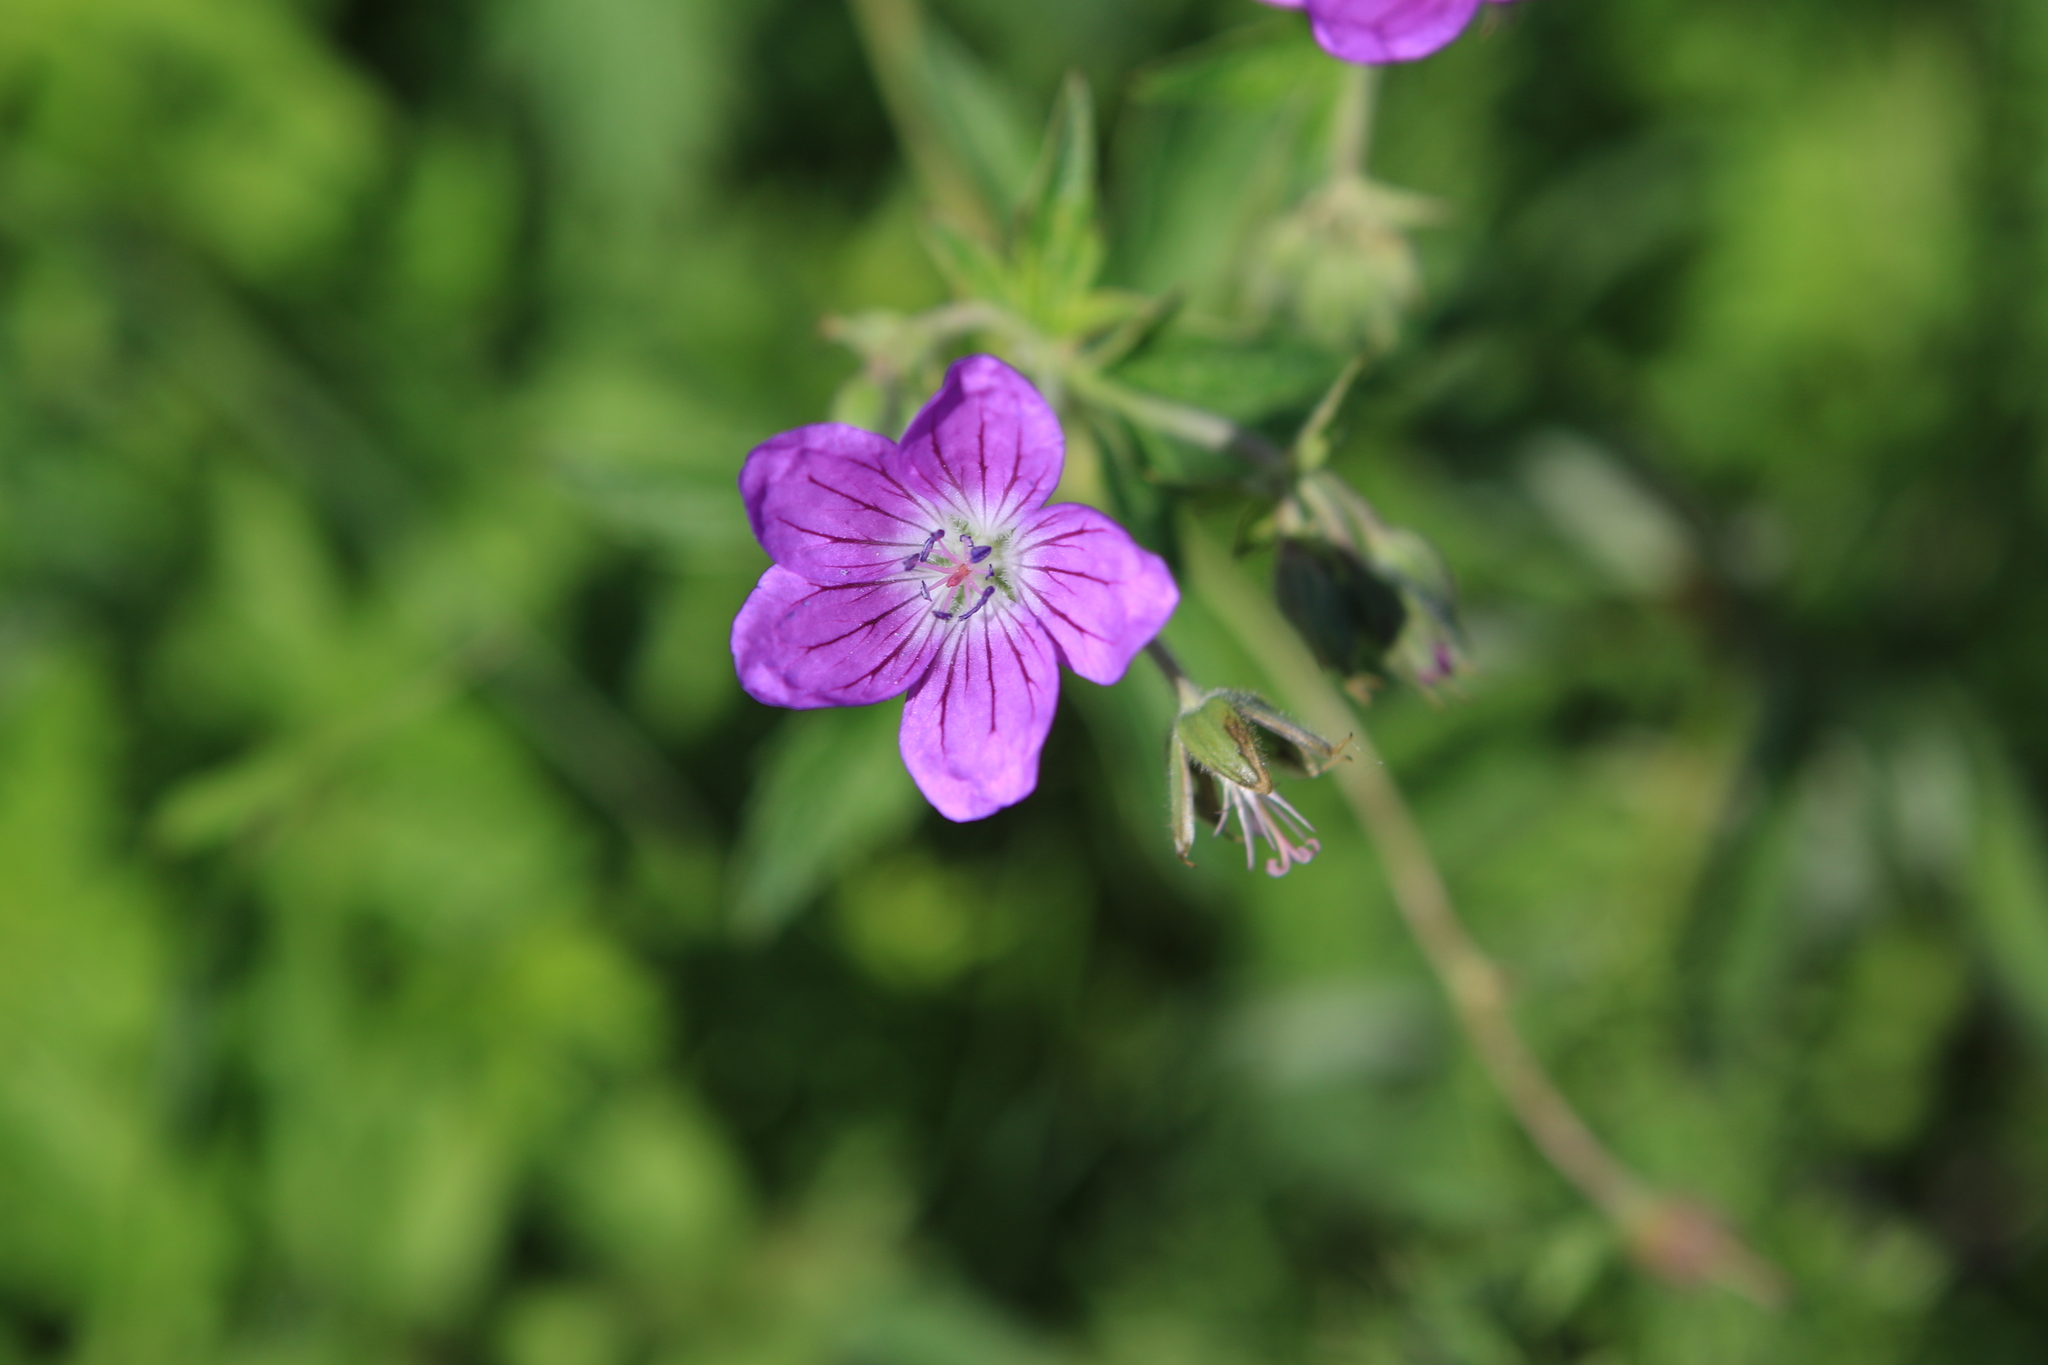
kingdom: Plantae
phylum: Tracheophyta
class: Magnoliopsida
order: Geraniales
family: Geraniaceae
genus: Geranium
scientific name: Geranium sylvaticum
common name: Wood crane's-bill
